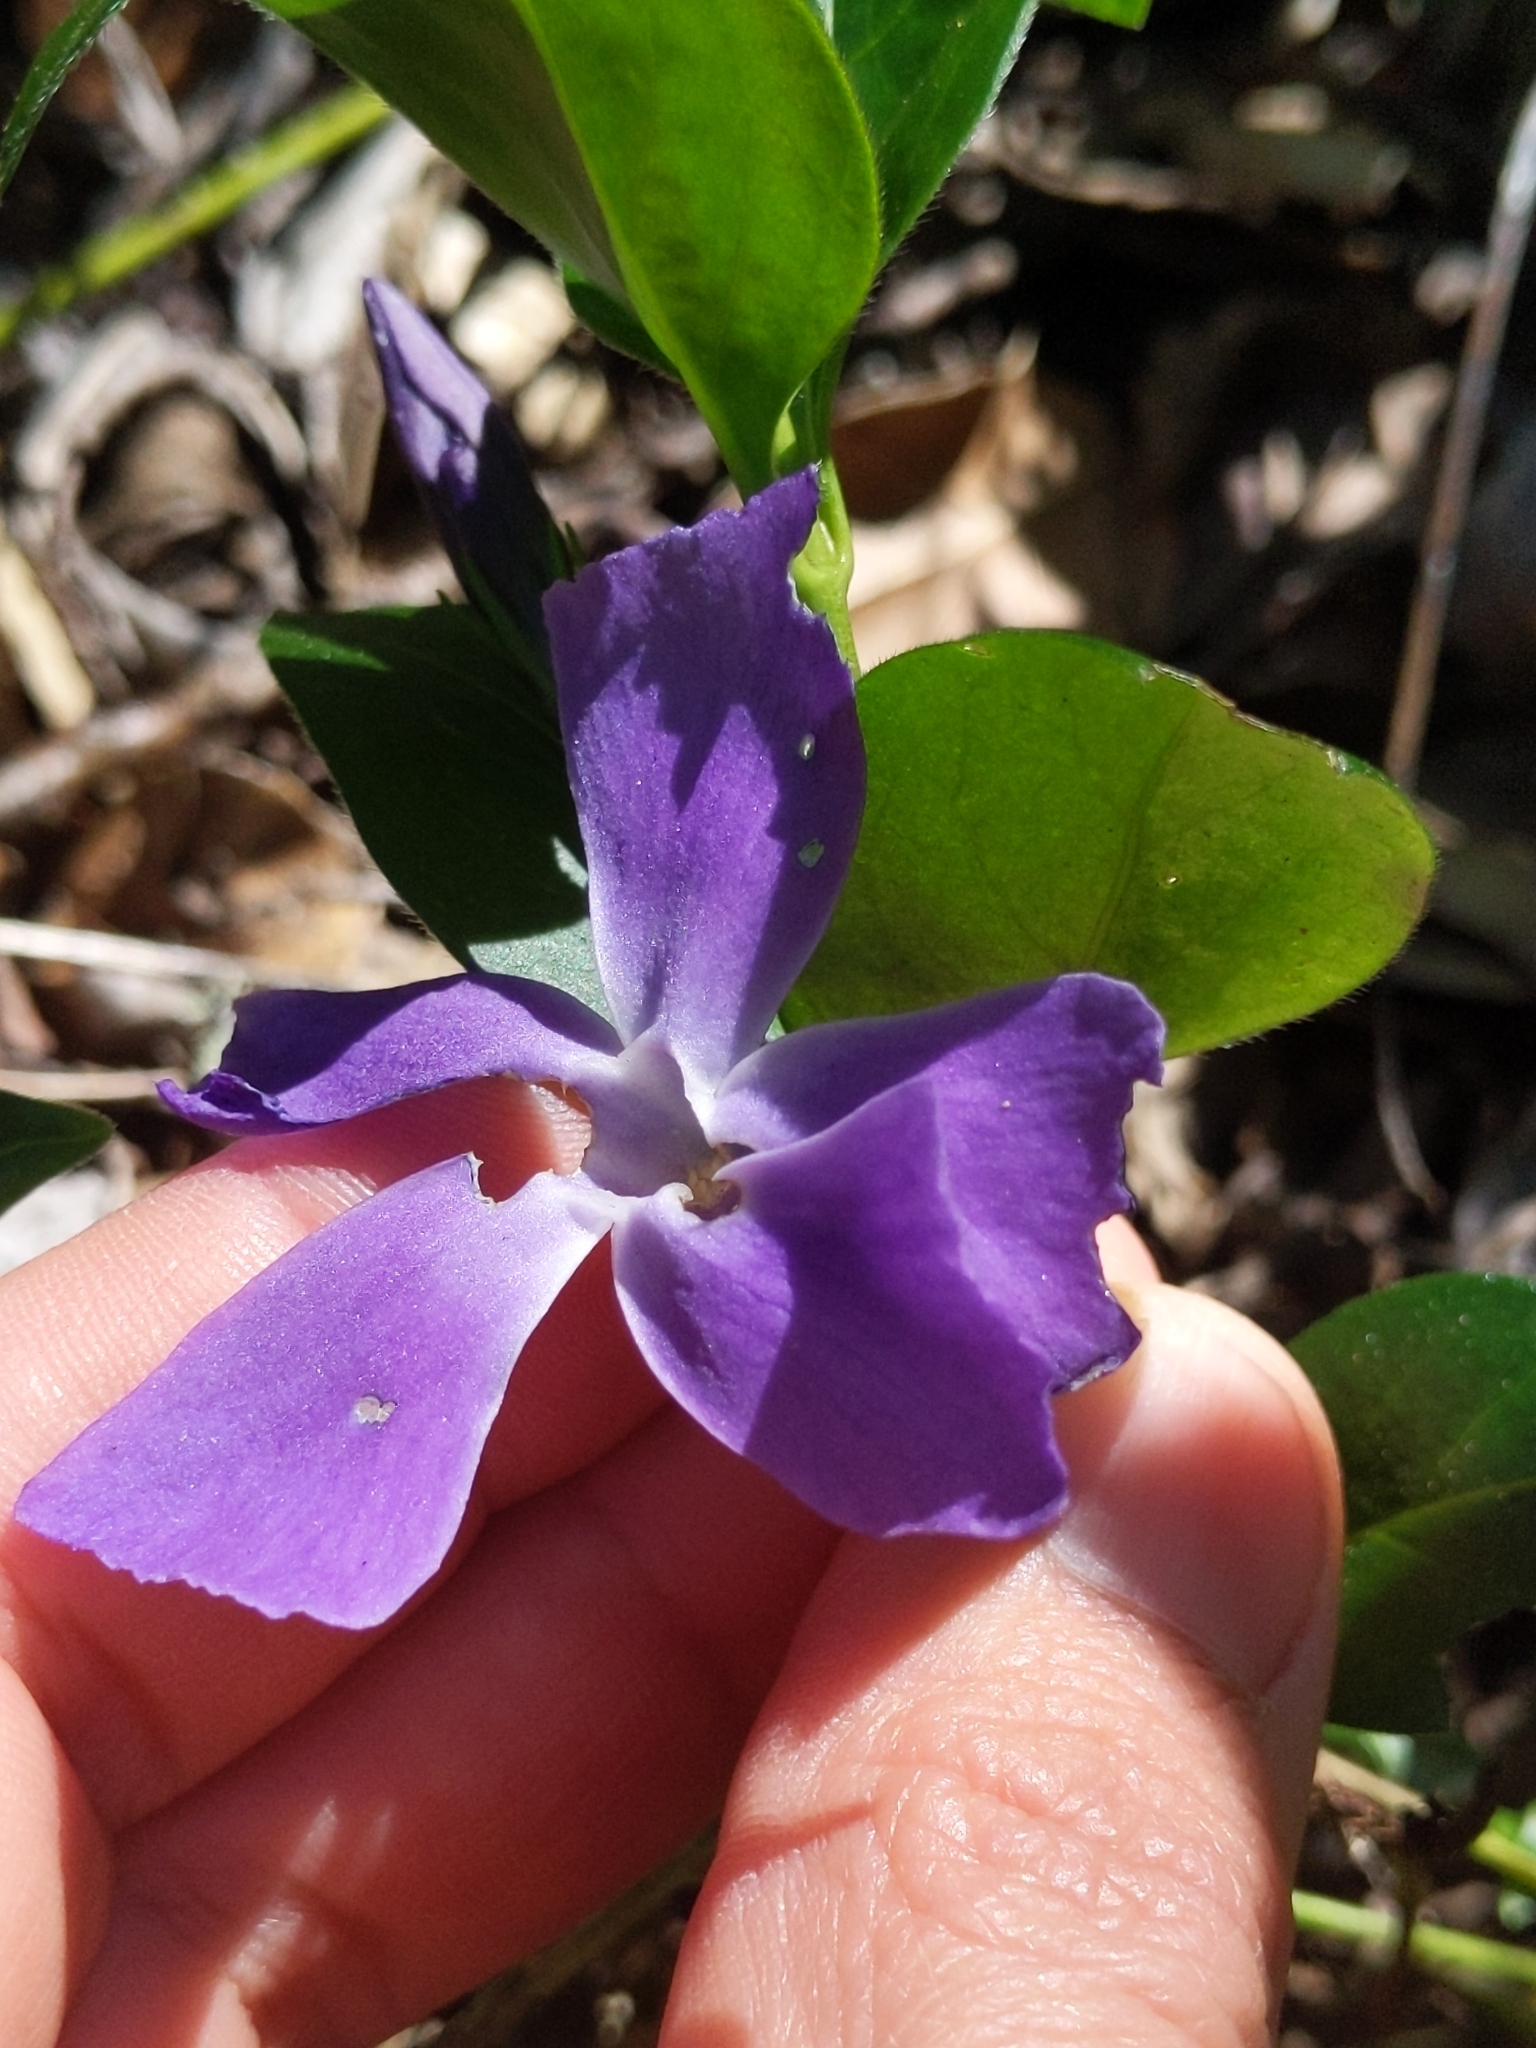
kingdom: Plantae
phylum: Tracheophyta
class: Magnoliopsida
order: Gentianales
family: Apocynaceae
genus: Vinca
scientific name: Vinca major
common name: Greater periwinkle
